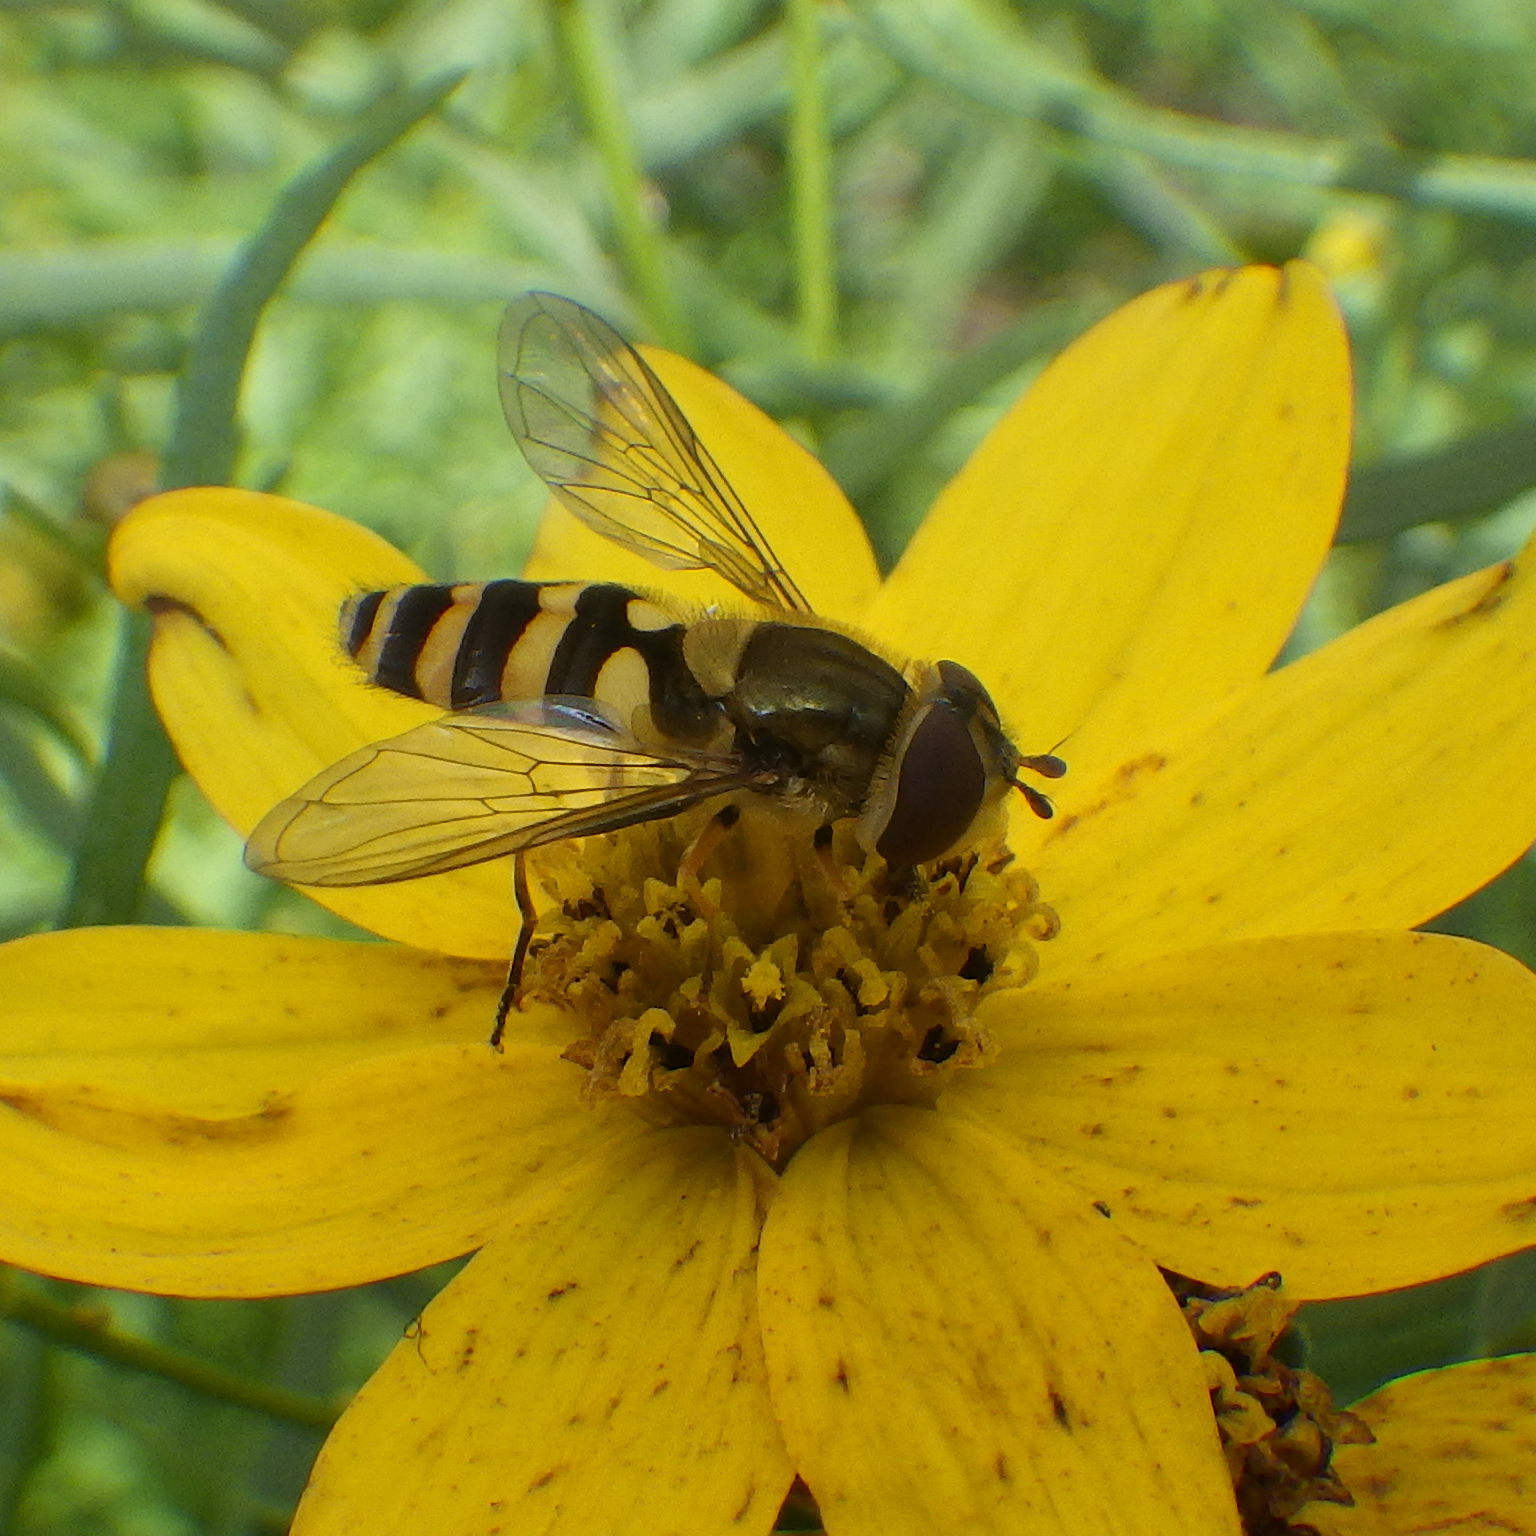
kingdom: Animalia
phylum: Arthropoda
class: Insecta
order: Diptera
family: Syrphidae
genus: Syrphus
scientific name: Syrphus
